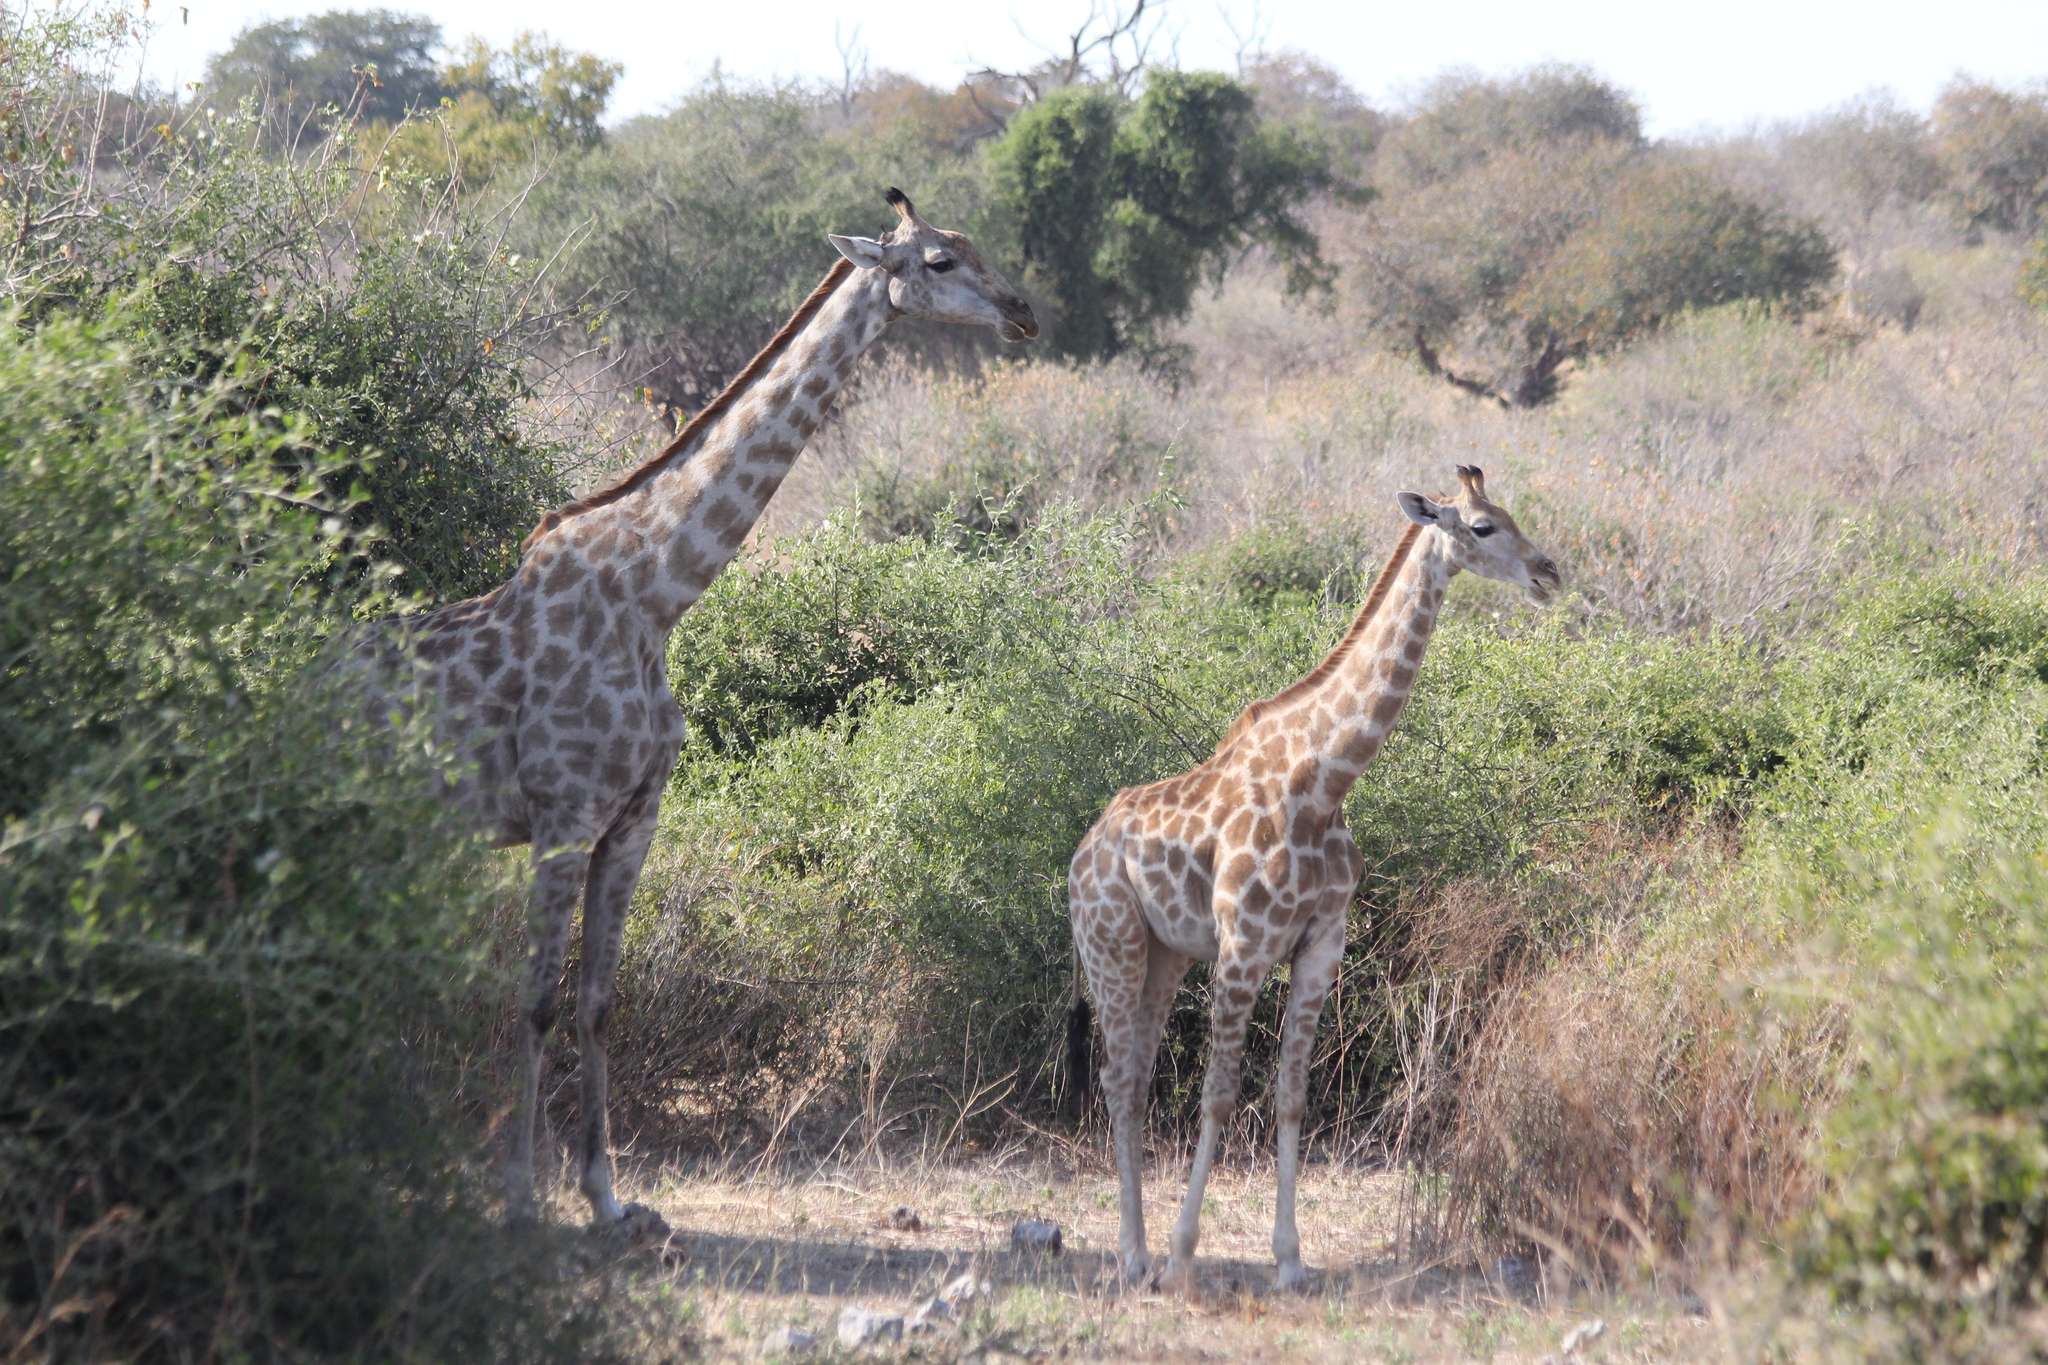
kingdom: Animalia
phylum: Chordata
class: Mammalia
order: Artiodactyla
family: Giraffidae
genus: Giraffa
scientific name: Giraffa giraffa
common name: Southern giraffe
